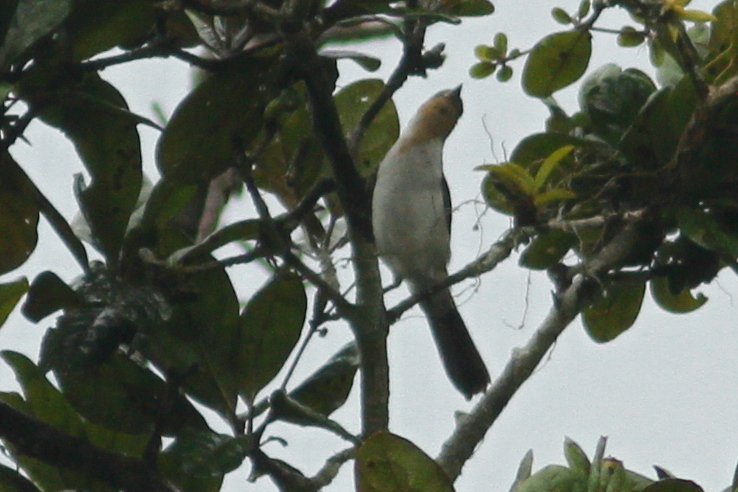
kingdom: Animalia
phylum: Chordata
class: Aves
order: Passeriformes
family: Thraupidae
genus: Paroaria
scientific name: Paroaria gularis
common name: Red-capped cardinal
